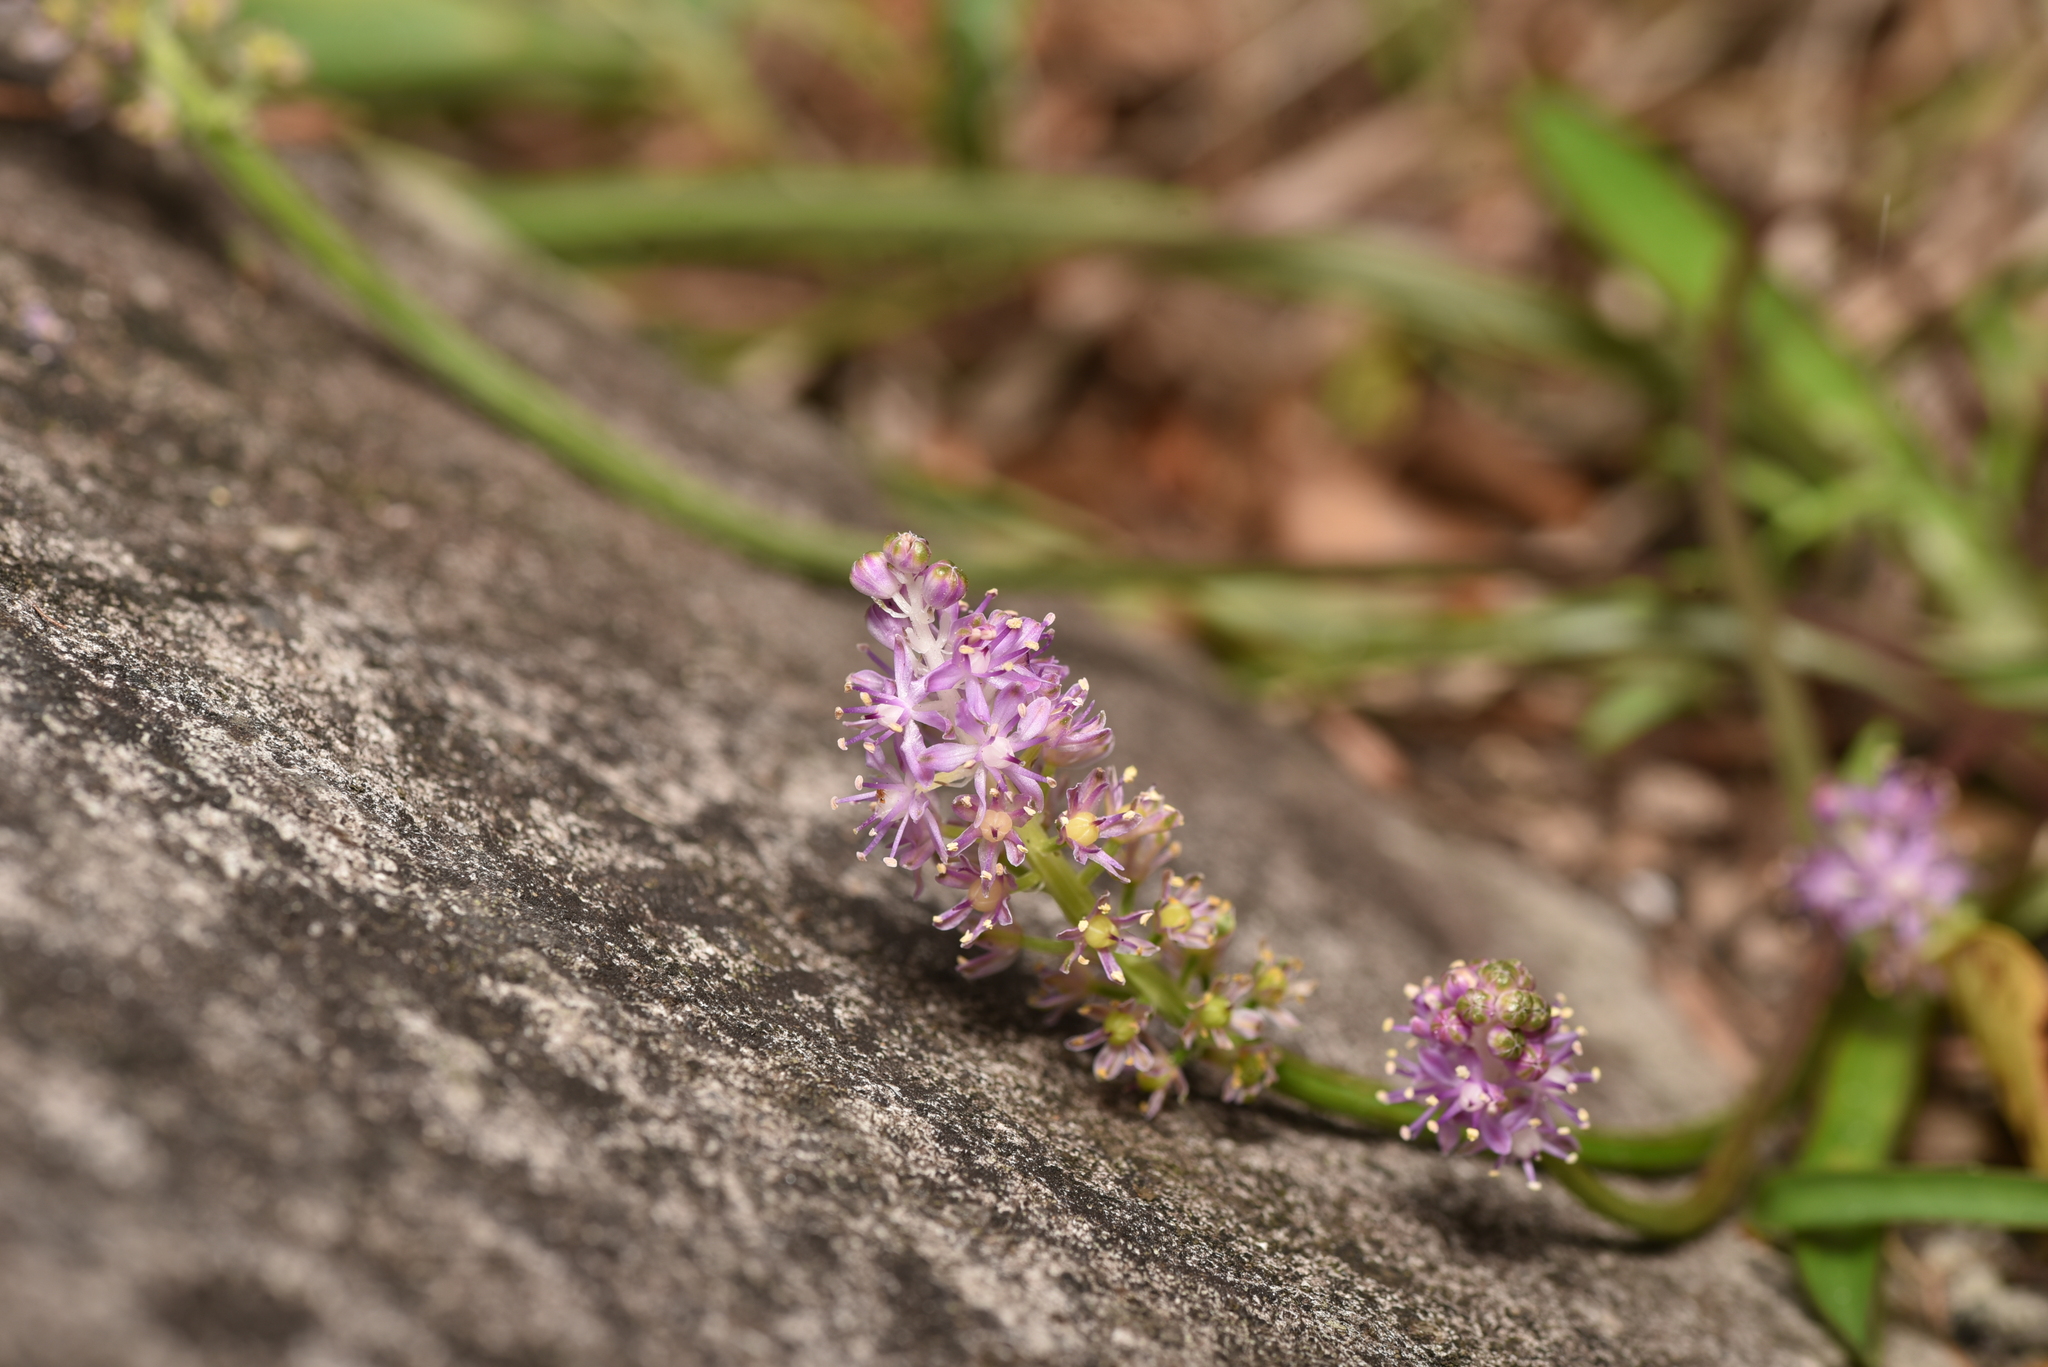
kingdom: Plantae
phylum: Tracheophyta
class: Liliopsida
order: Asparagales
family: Asparagaceae
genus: Barnardia
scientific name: Barnardia japonica
